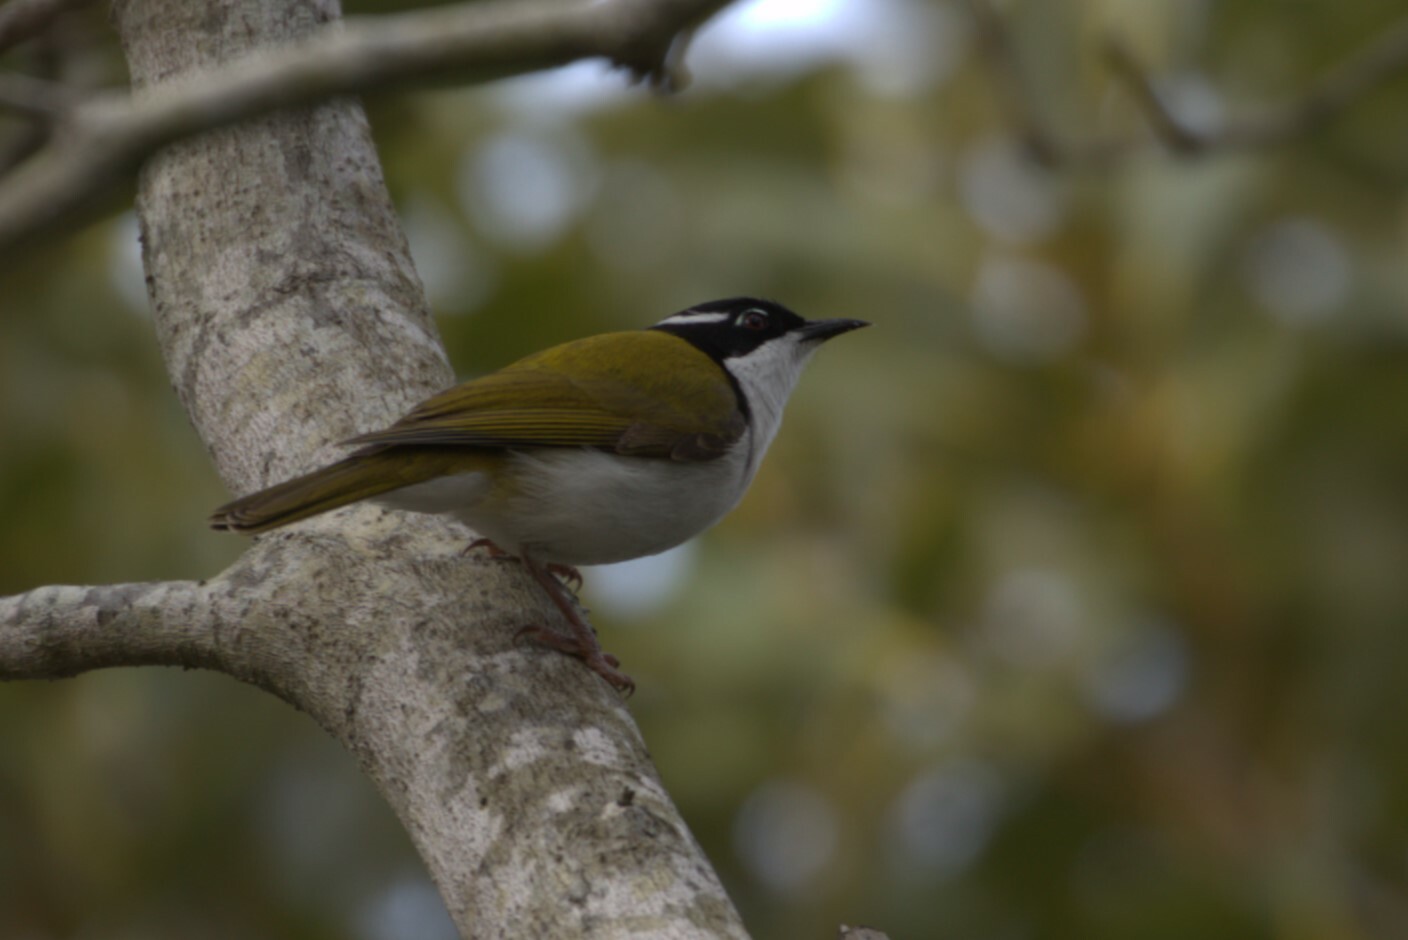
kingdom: Animalia
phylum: Chordata
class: Aves
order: Passeriformes
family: Meliphagidae
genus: Melithreptus
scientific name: Melithreptus albogularis
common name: White-throated honeyeater
